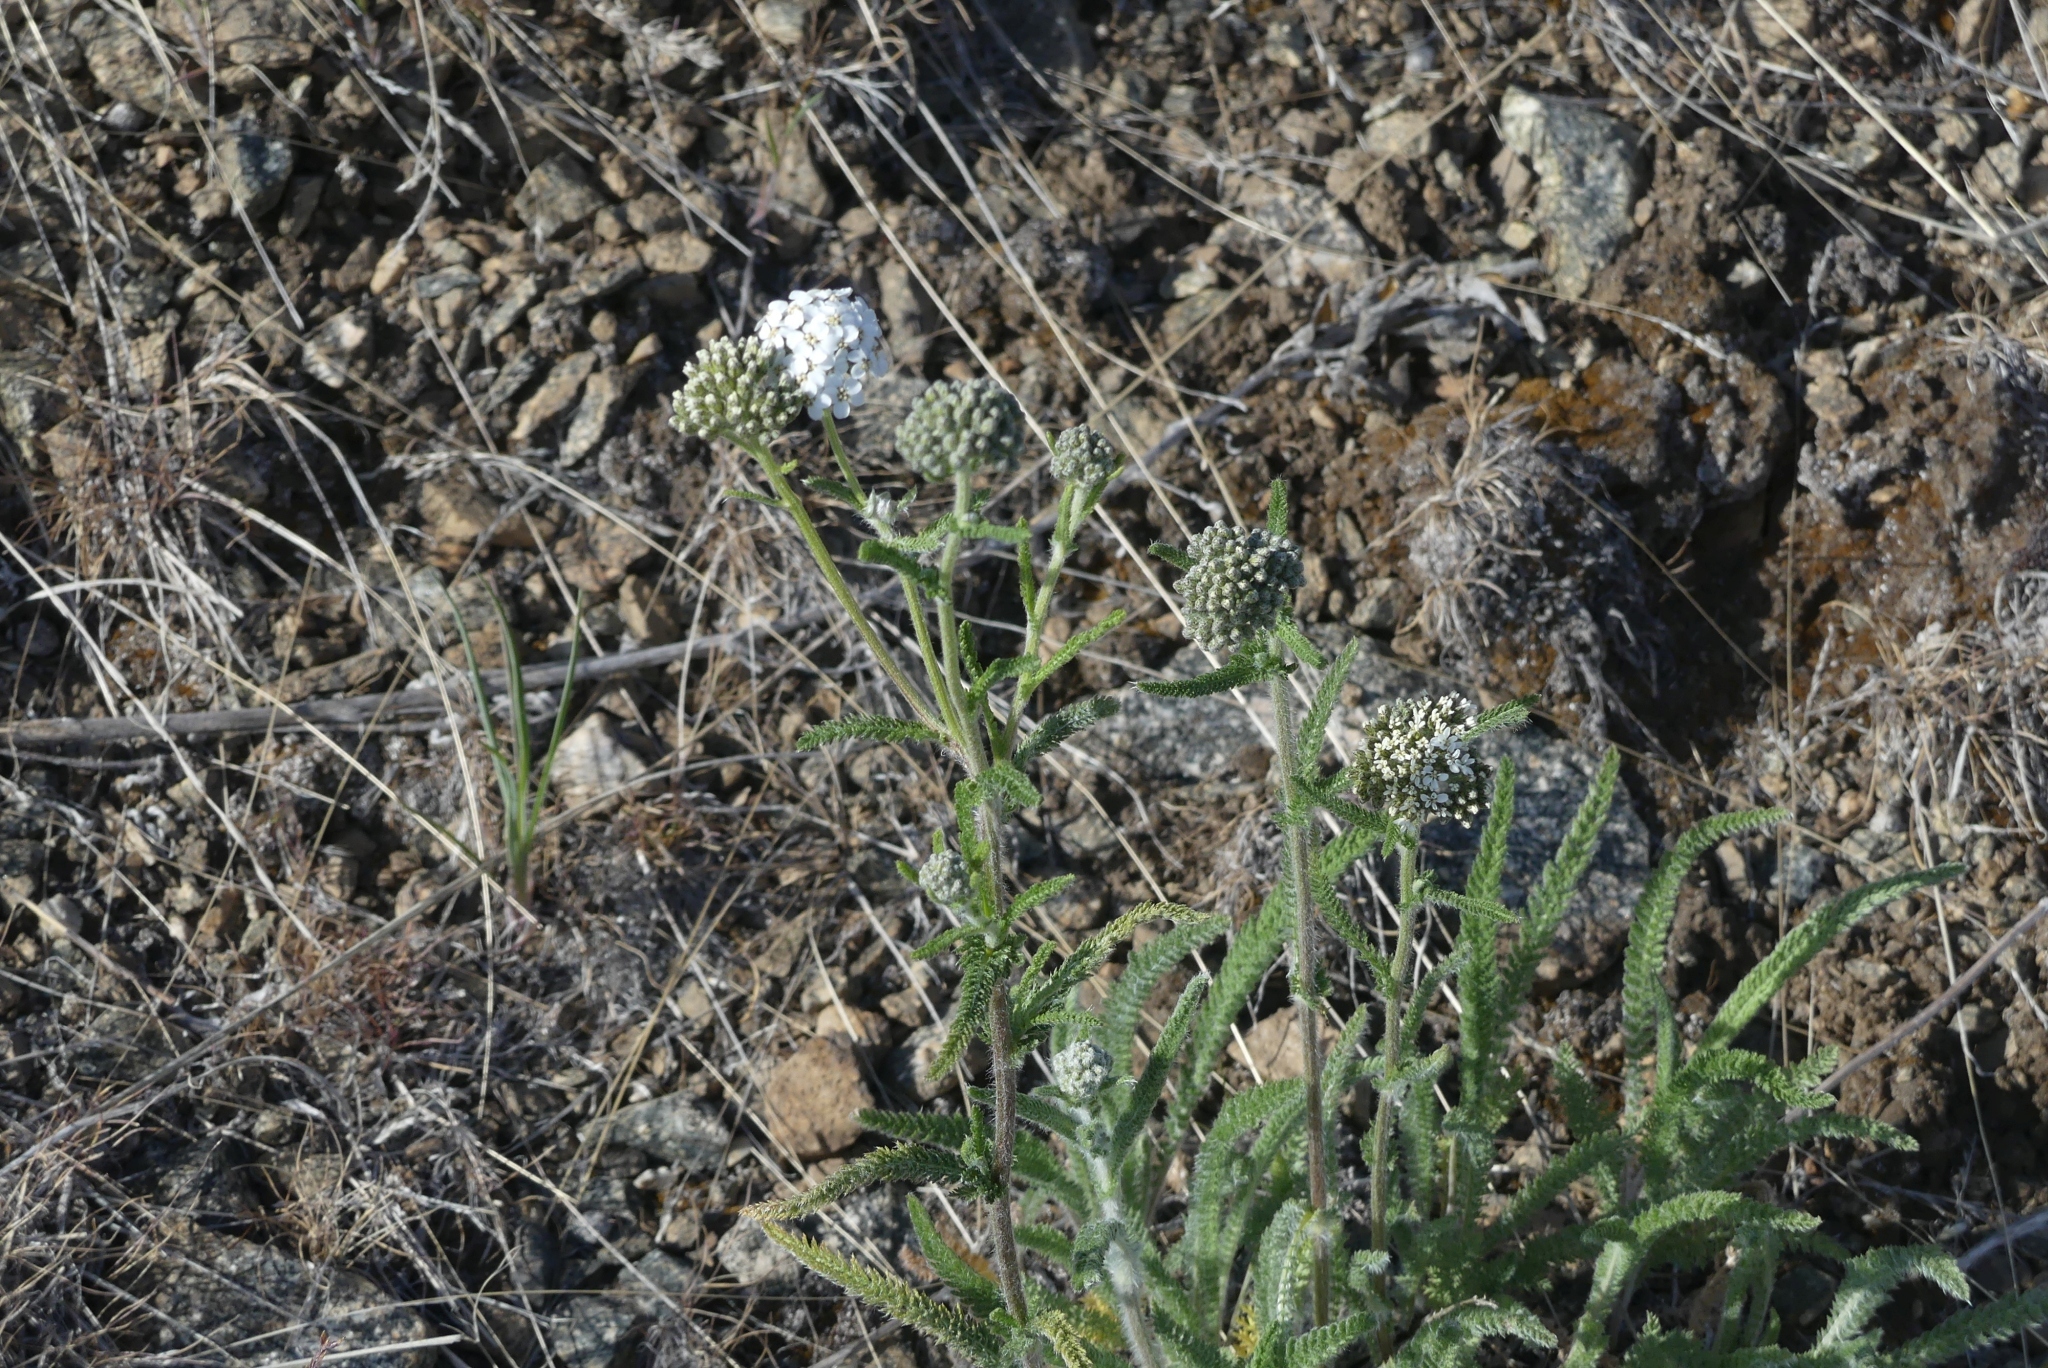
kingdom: Plantae
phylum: Tracheophyta
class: Magnoliopsida
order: Asterales
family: Asteraceae
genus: Achillea
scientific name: Achillea millefolium
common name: Yarrow
